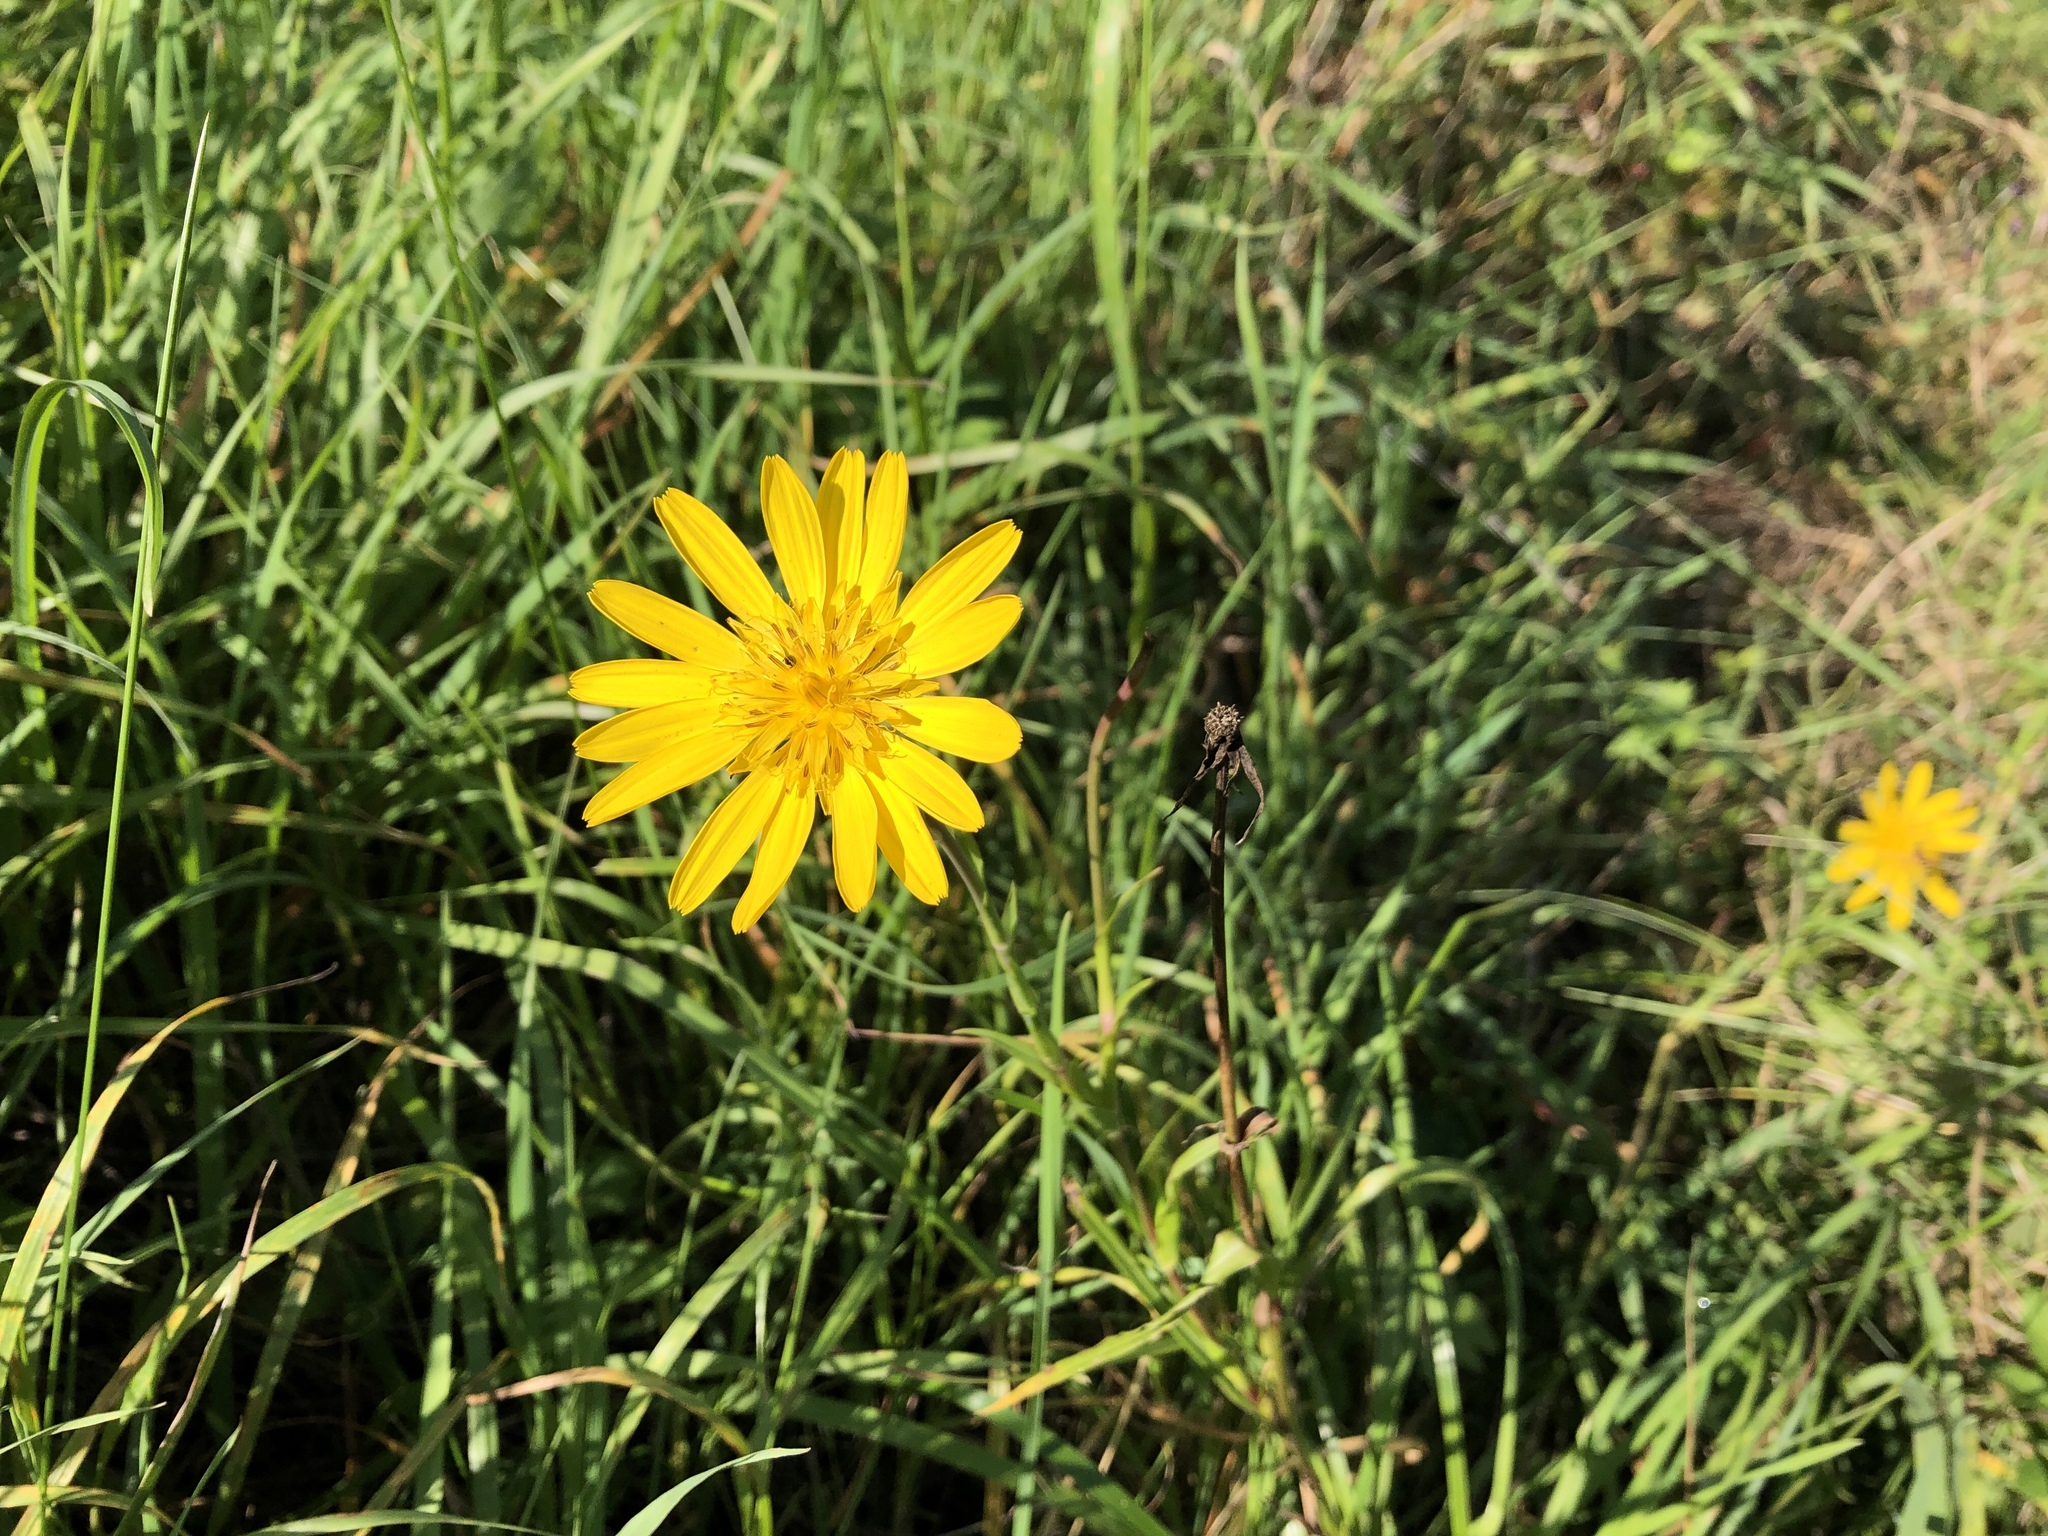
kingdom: Plantae
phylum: Tracheophyta
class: Magnoliopsida
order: Asterales
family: Asteraceae
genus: Tragopogon
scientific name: Tragopogon orientalis
